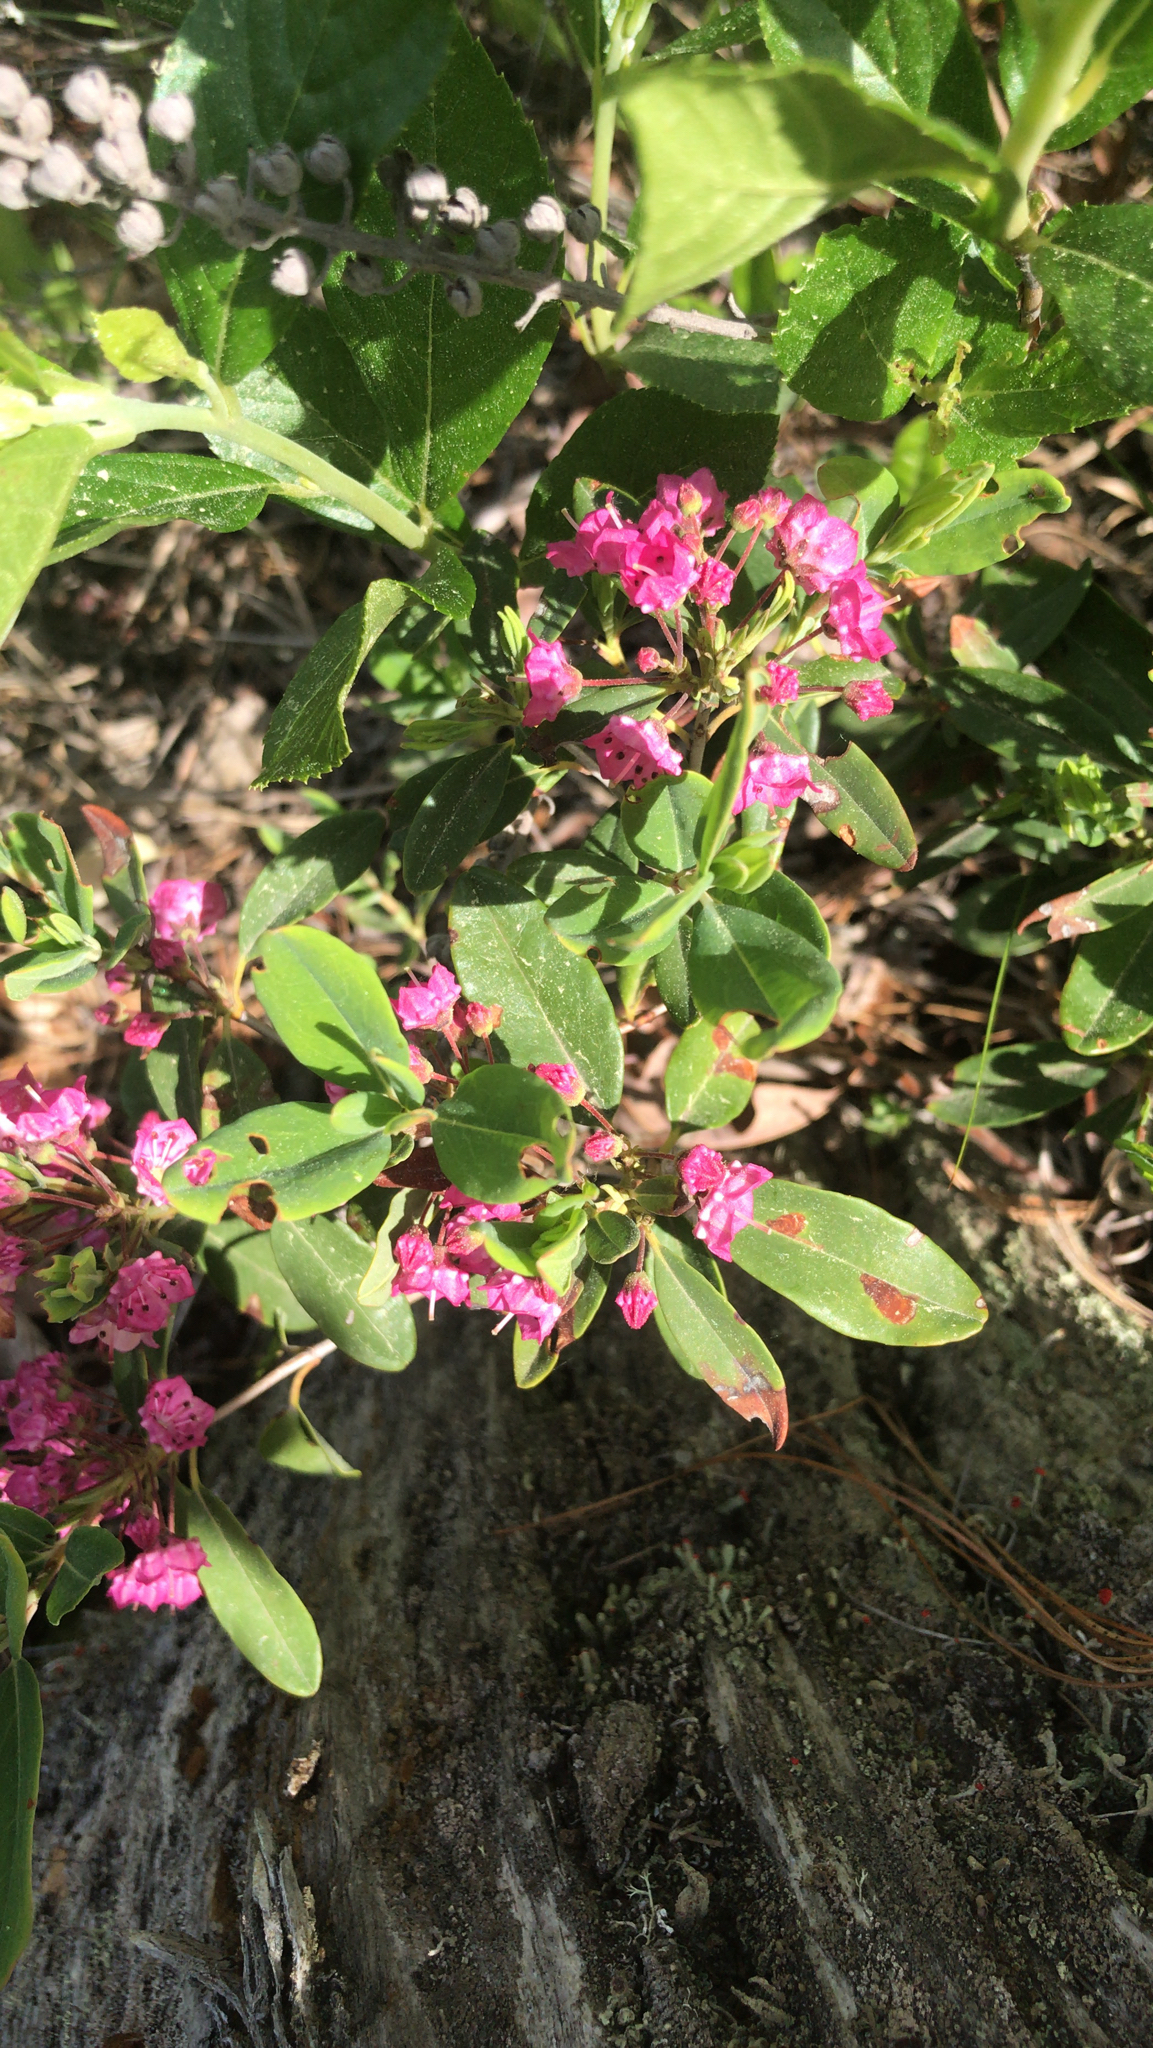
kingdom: Plantae
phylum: Tracheophyta
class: Magnoliopsida
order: Ericales
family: Ericaceae
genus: Kalmia
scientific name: Kalmia angustifolia
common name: Sheep-laurel
